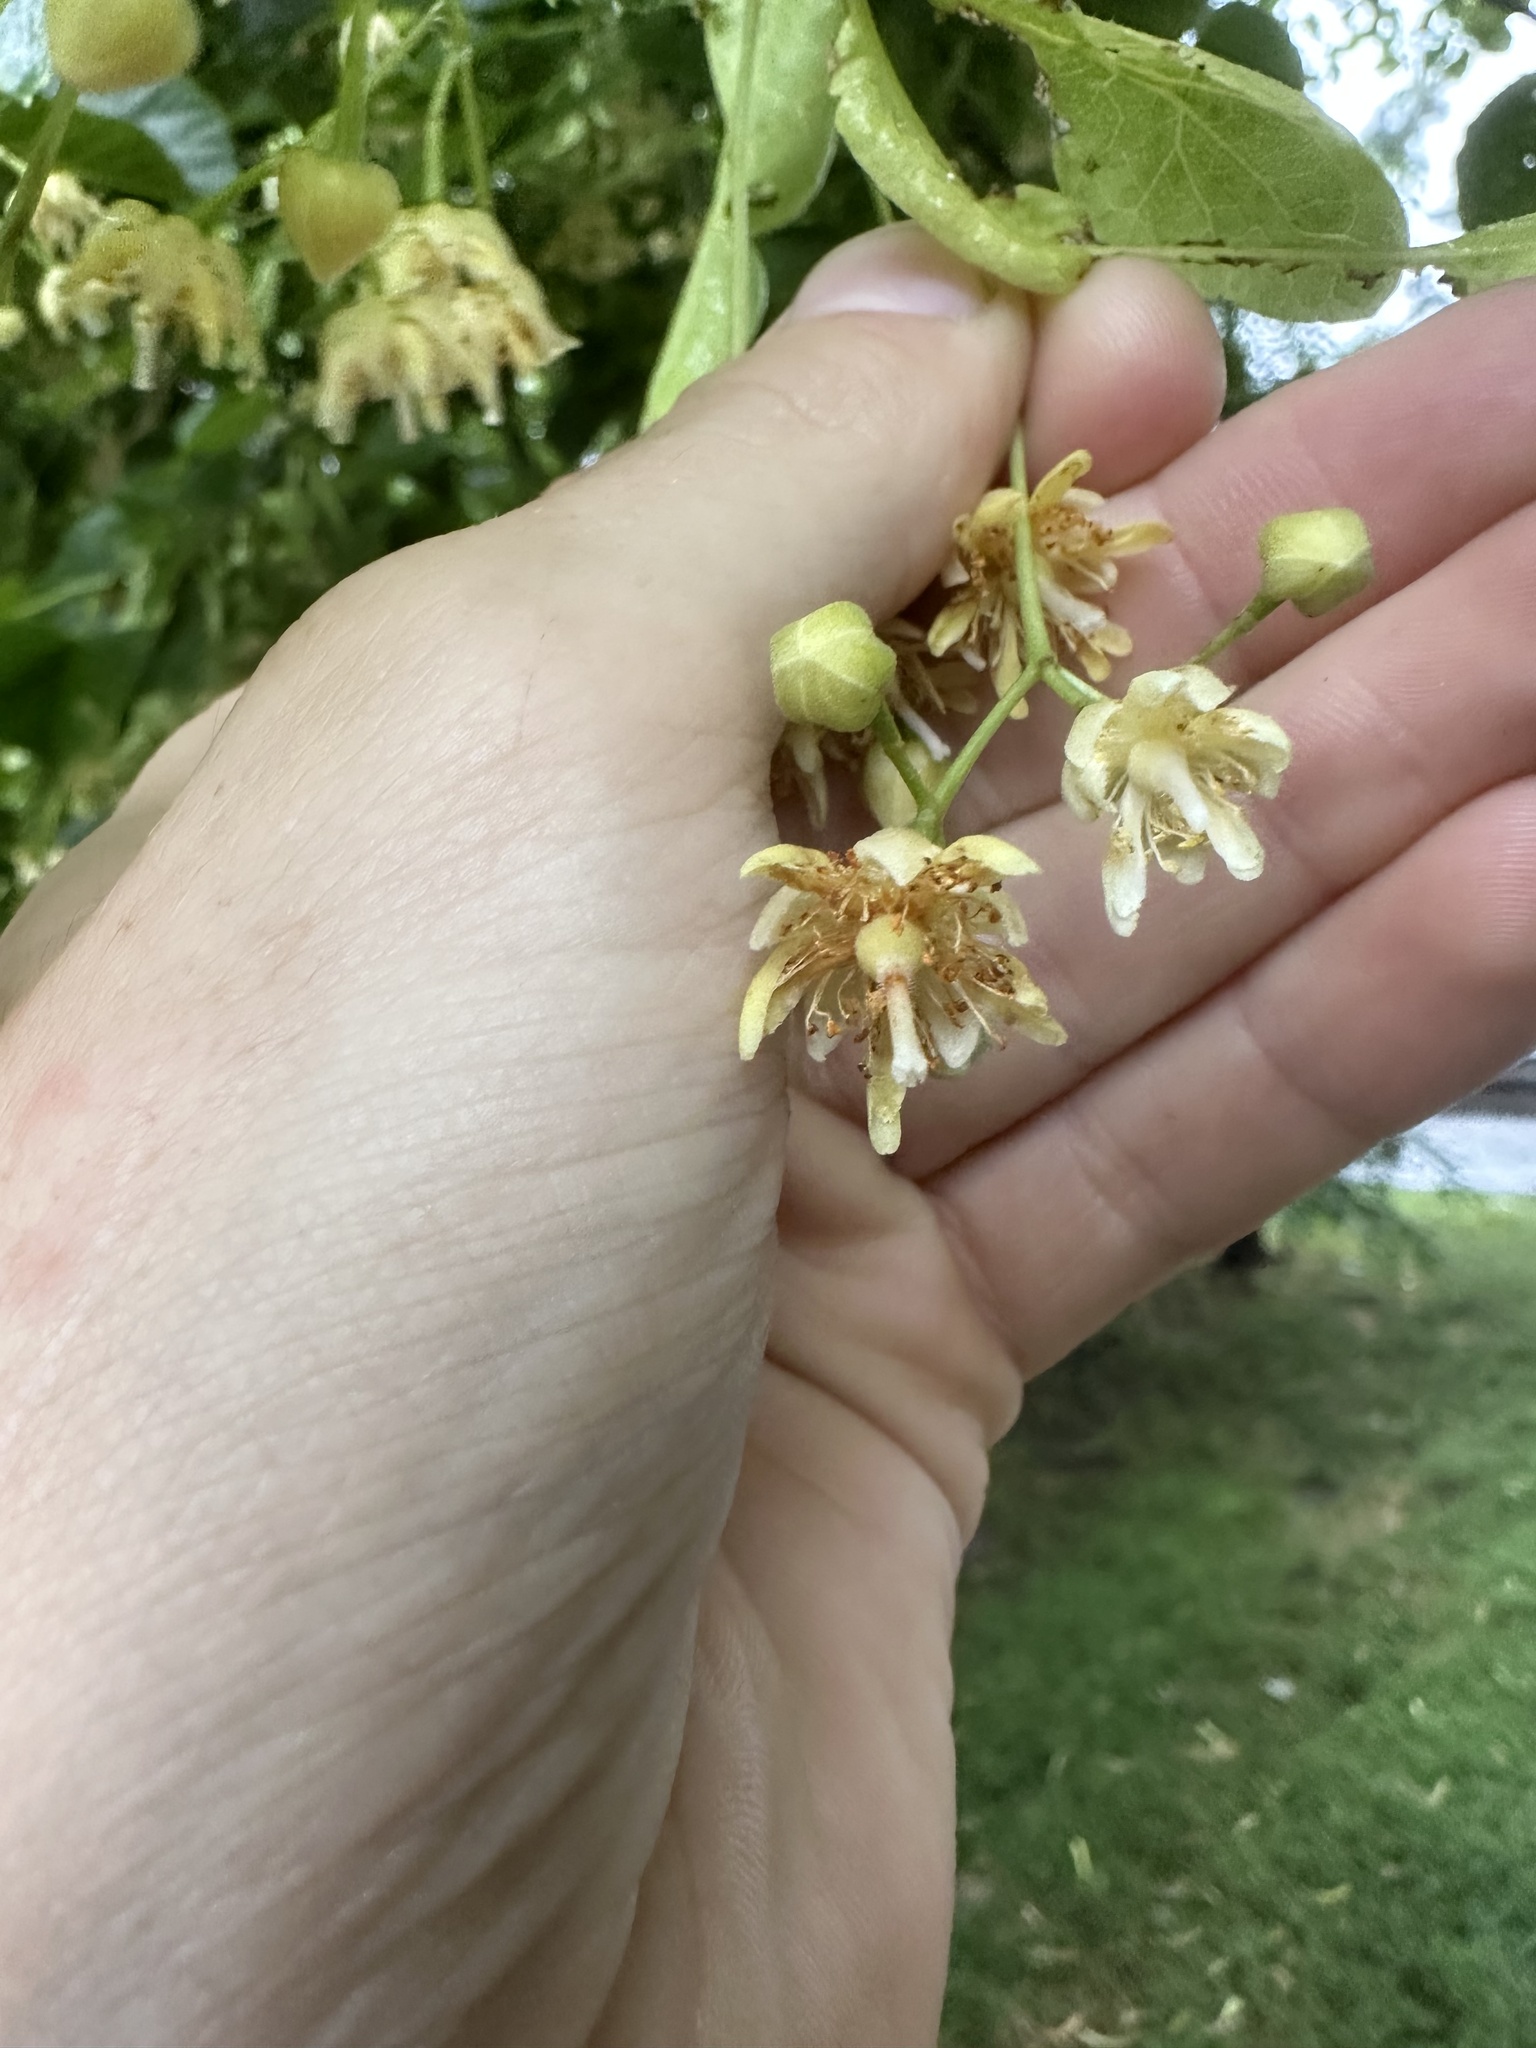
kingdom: Plantae
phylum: Tracheophyta
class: Magnoliopsida
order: Malvales
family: Malvaceae
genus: Tilia
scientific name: Tilia americana
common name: Basswood
